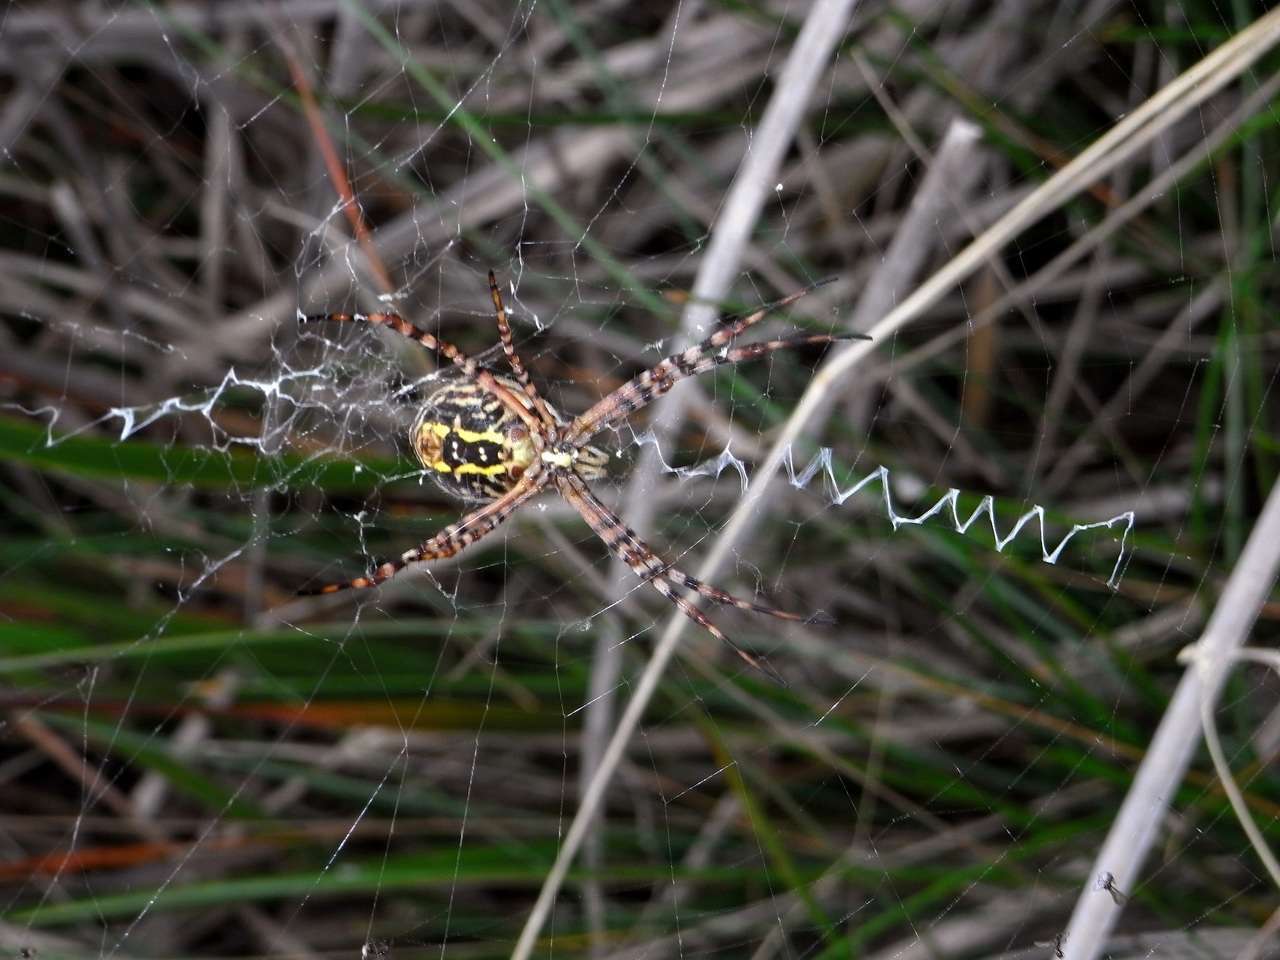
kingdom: Animalia
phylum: Arthropoda
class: Arachnida
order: Araneae
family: Araneidae
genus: Argiope
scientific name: Argiope trifasciata
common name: Banded garden spider
